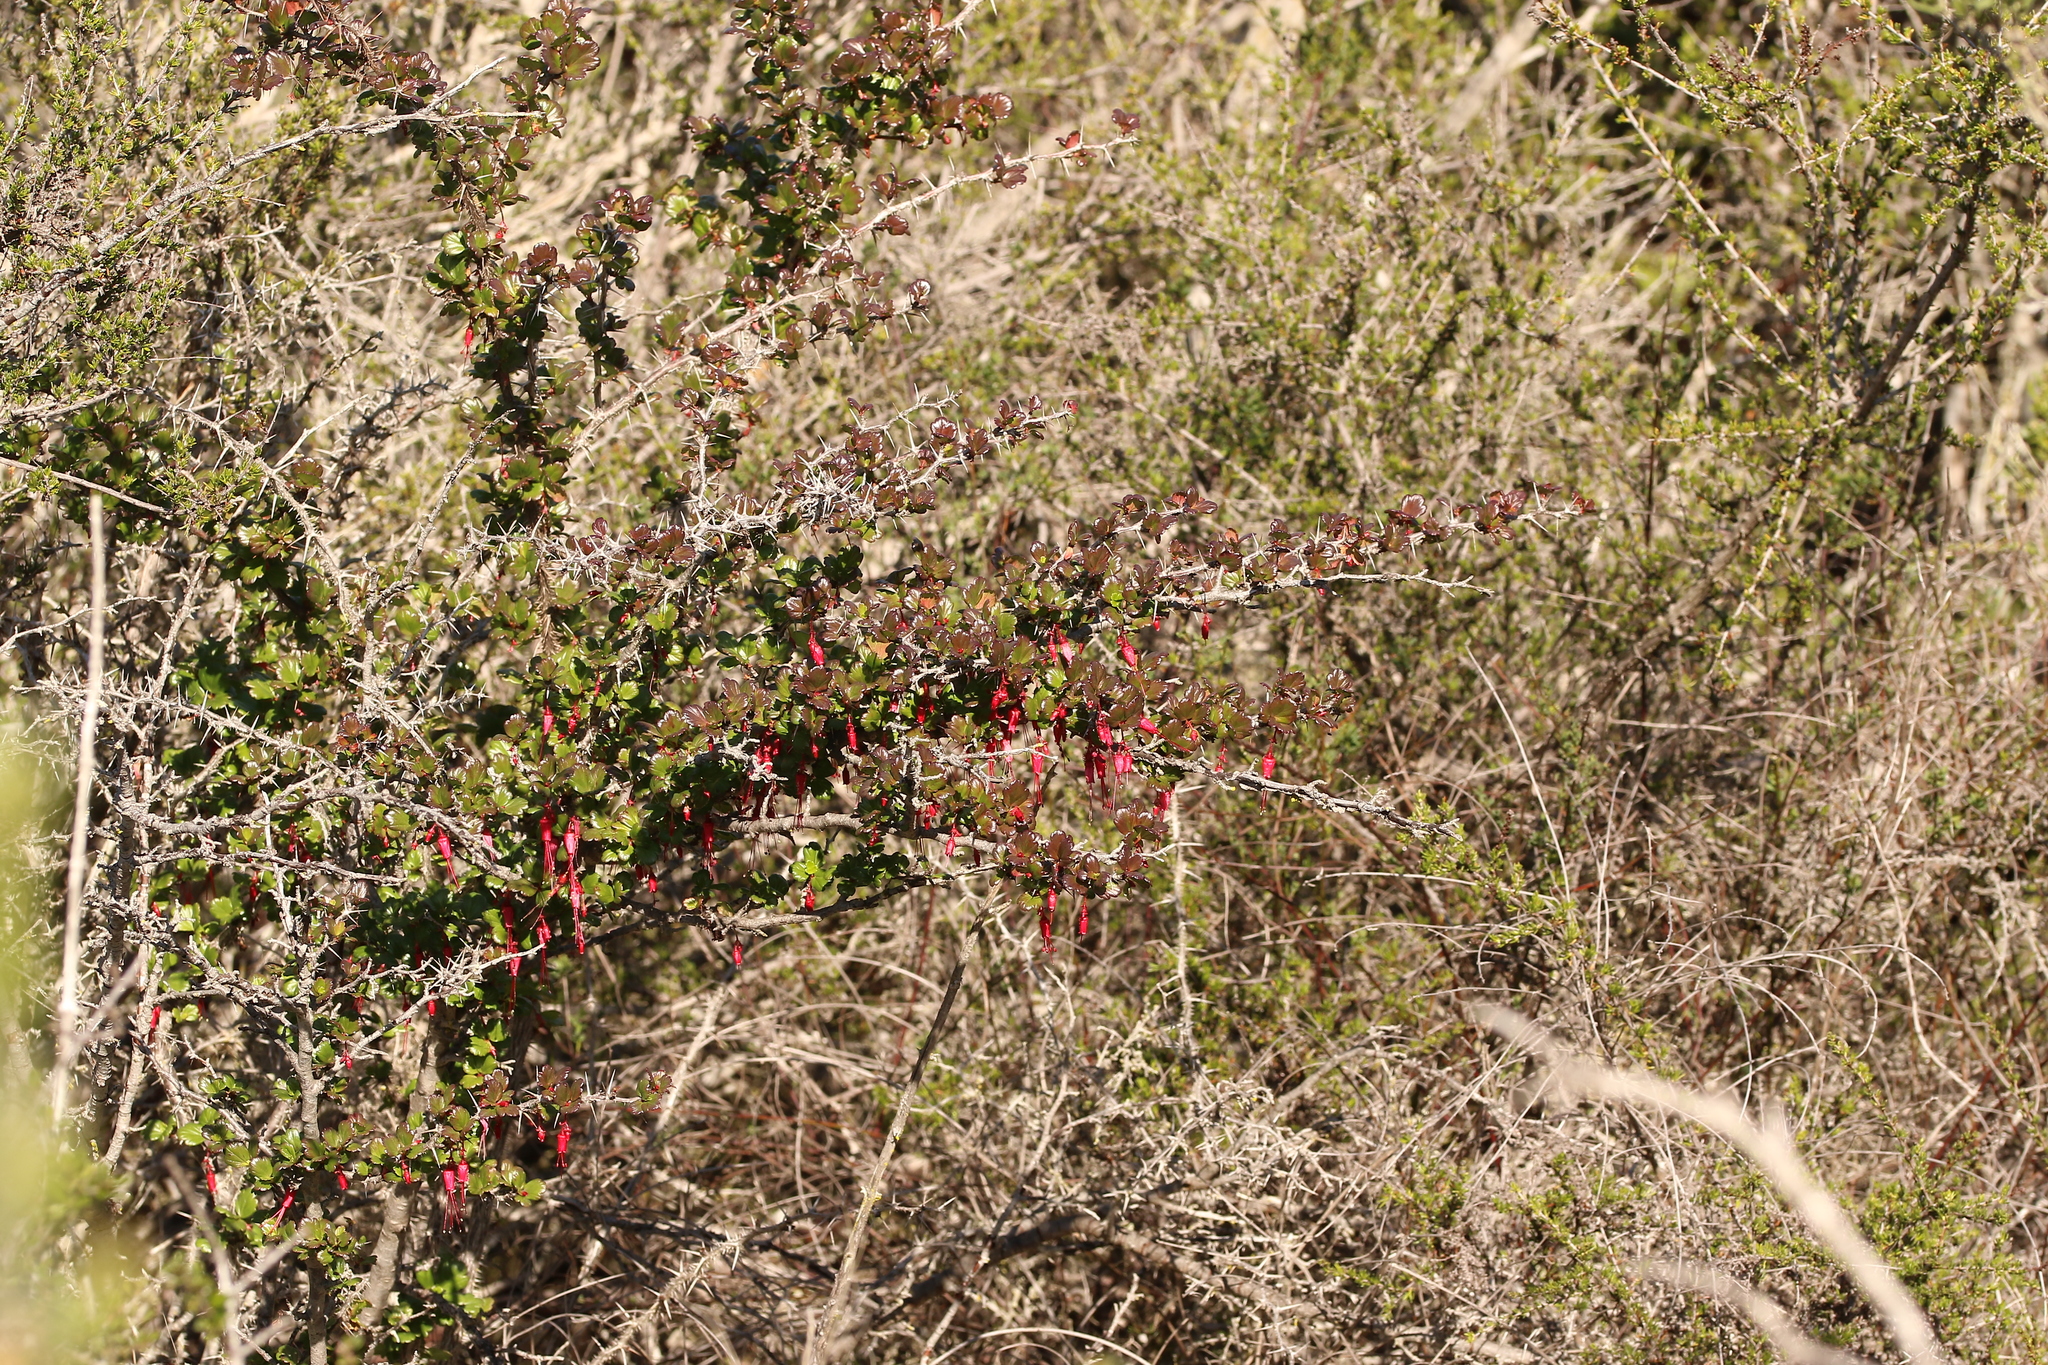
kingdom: Plantae
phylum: Tracheophyta
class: Magnoliopsida
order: Saxifragales
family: Grossulariaceae
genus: Ribes
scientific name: Ribes speciosum
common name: Fuchsia-flower gooseberry
